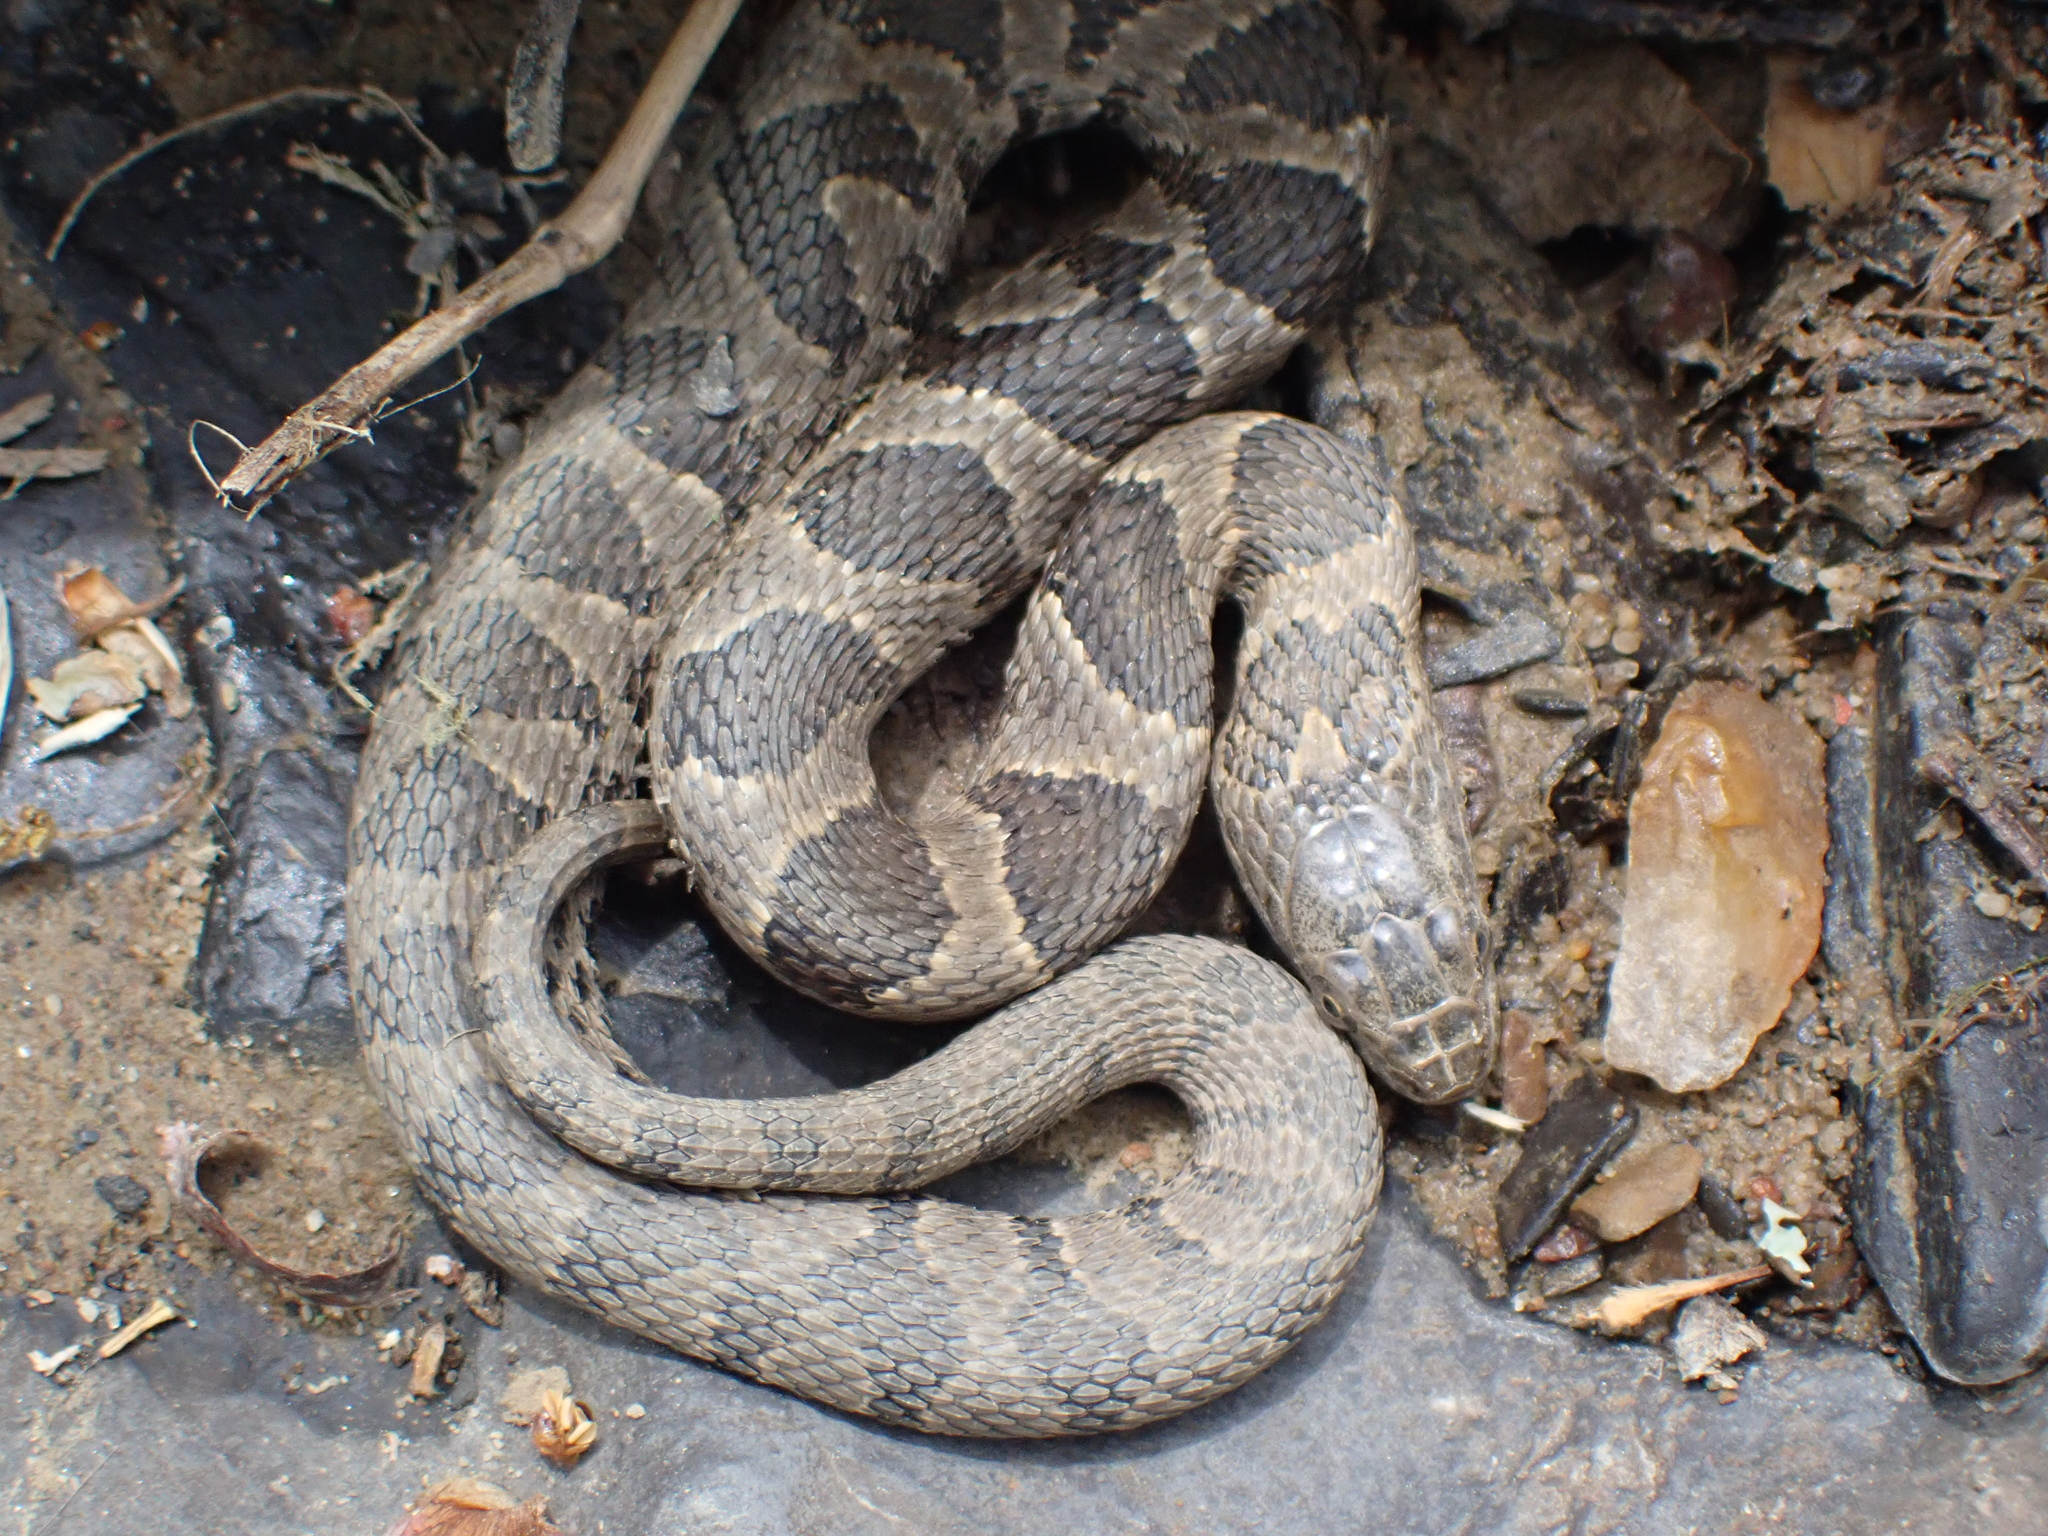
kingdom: Animalia
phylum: Chordata
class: Squamata
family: Colubridae
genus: Nerodia
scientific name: Nerodia sipedon
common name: Northern water snake
